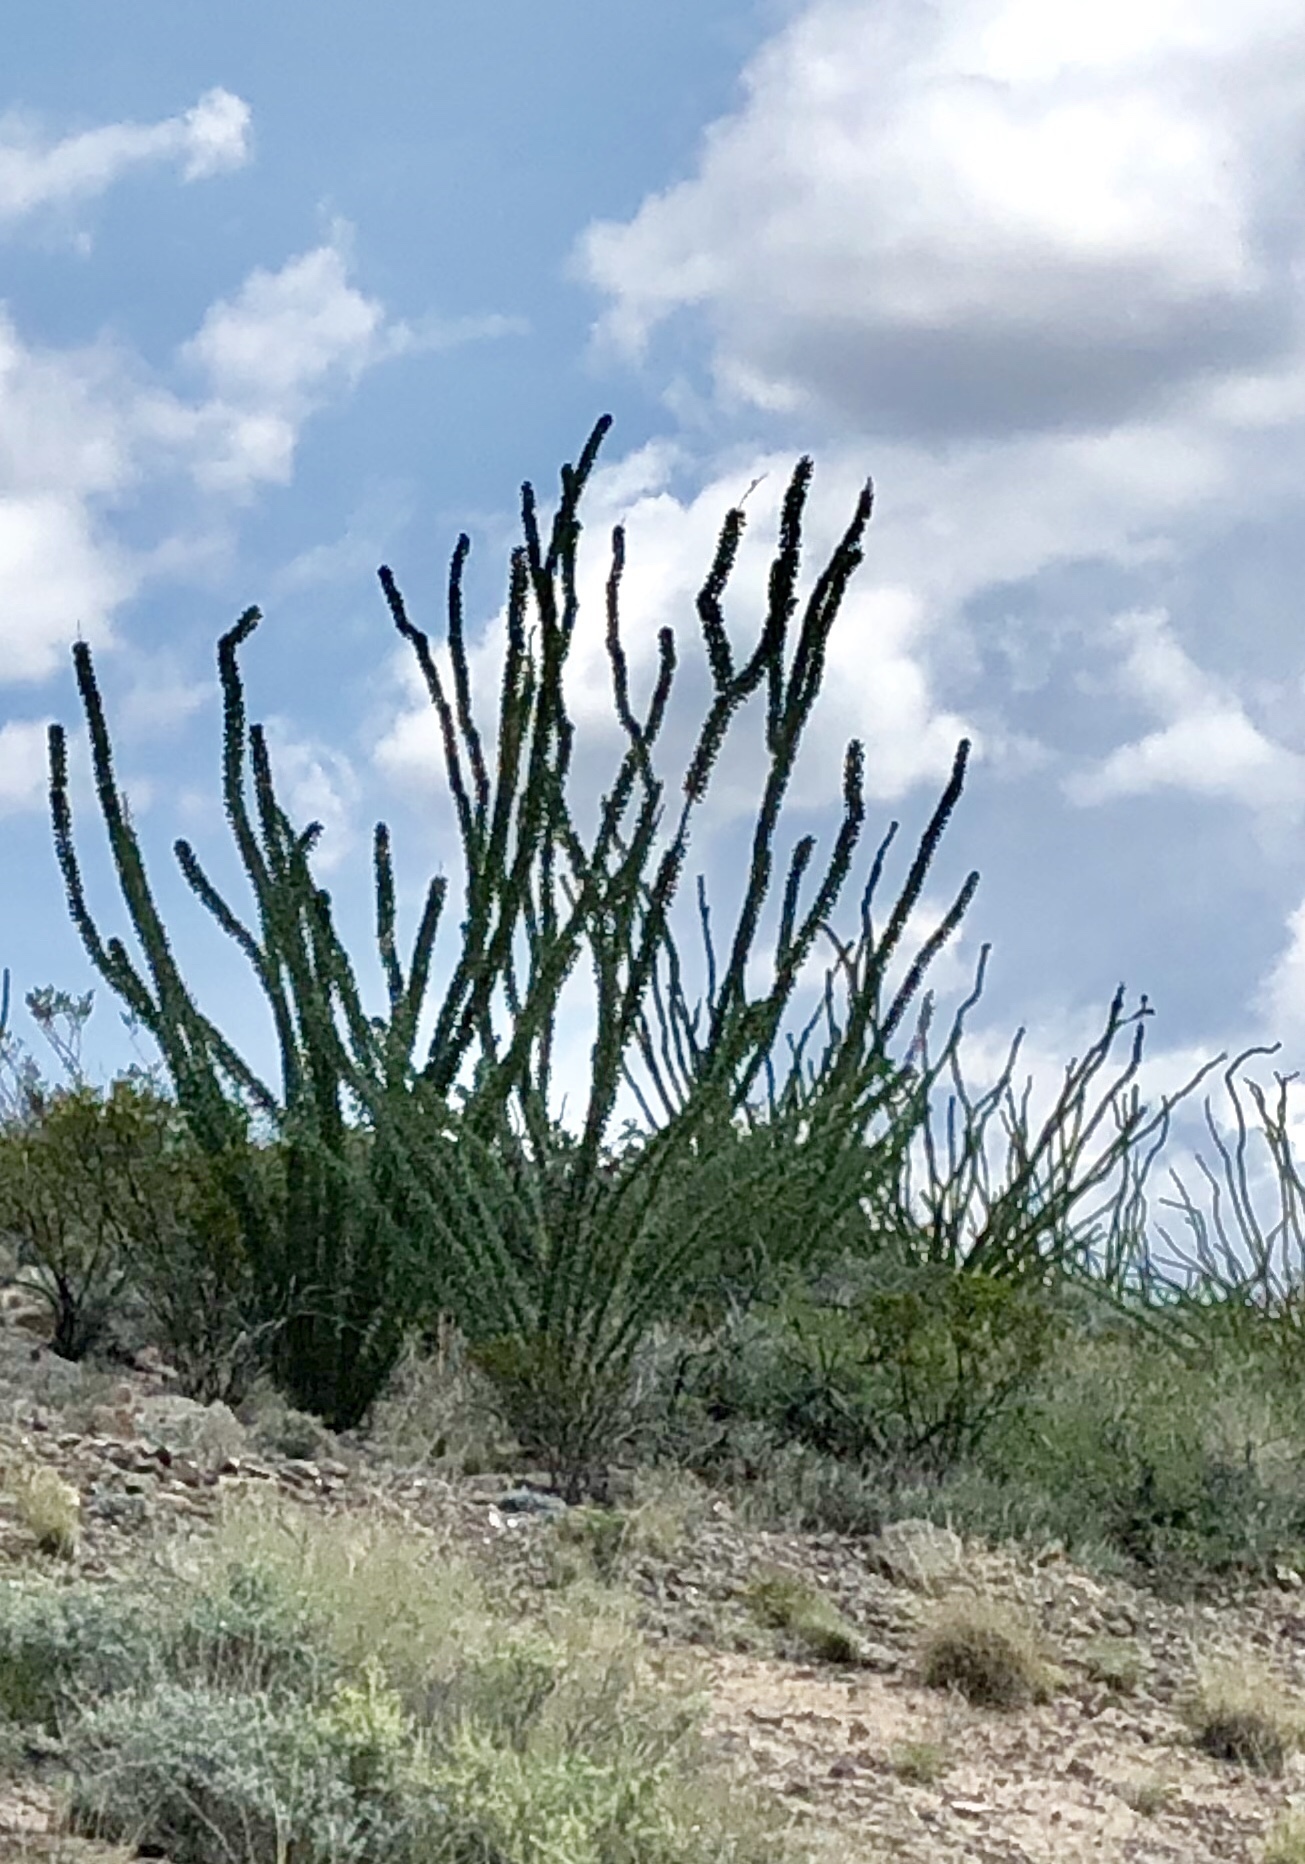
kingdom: Plantae
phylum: Tracheophyta
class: Magnoliopsida
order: Ericales
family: Fouquieriaceae
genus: Fouquieria
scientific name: Fouquieria splendens
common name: Vine-cactus
